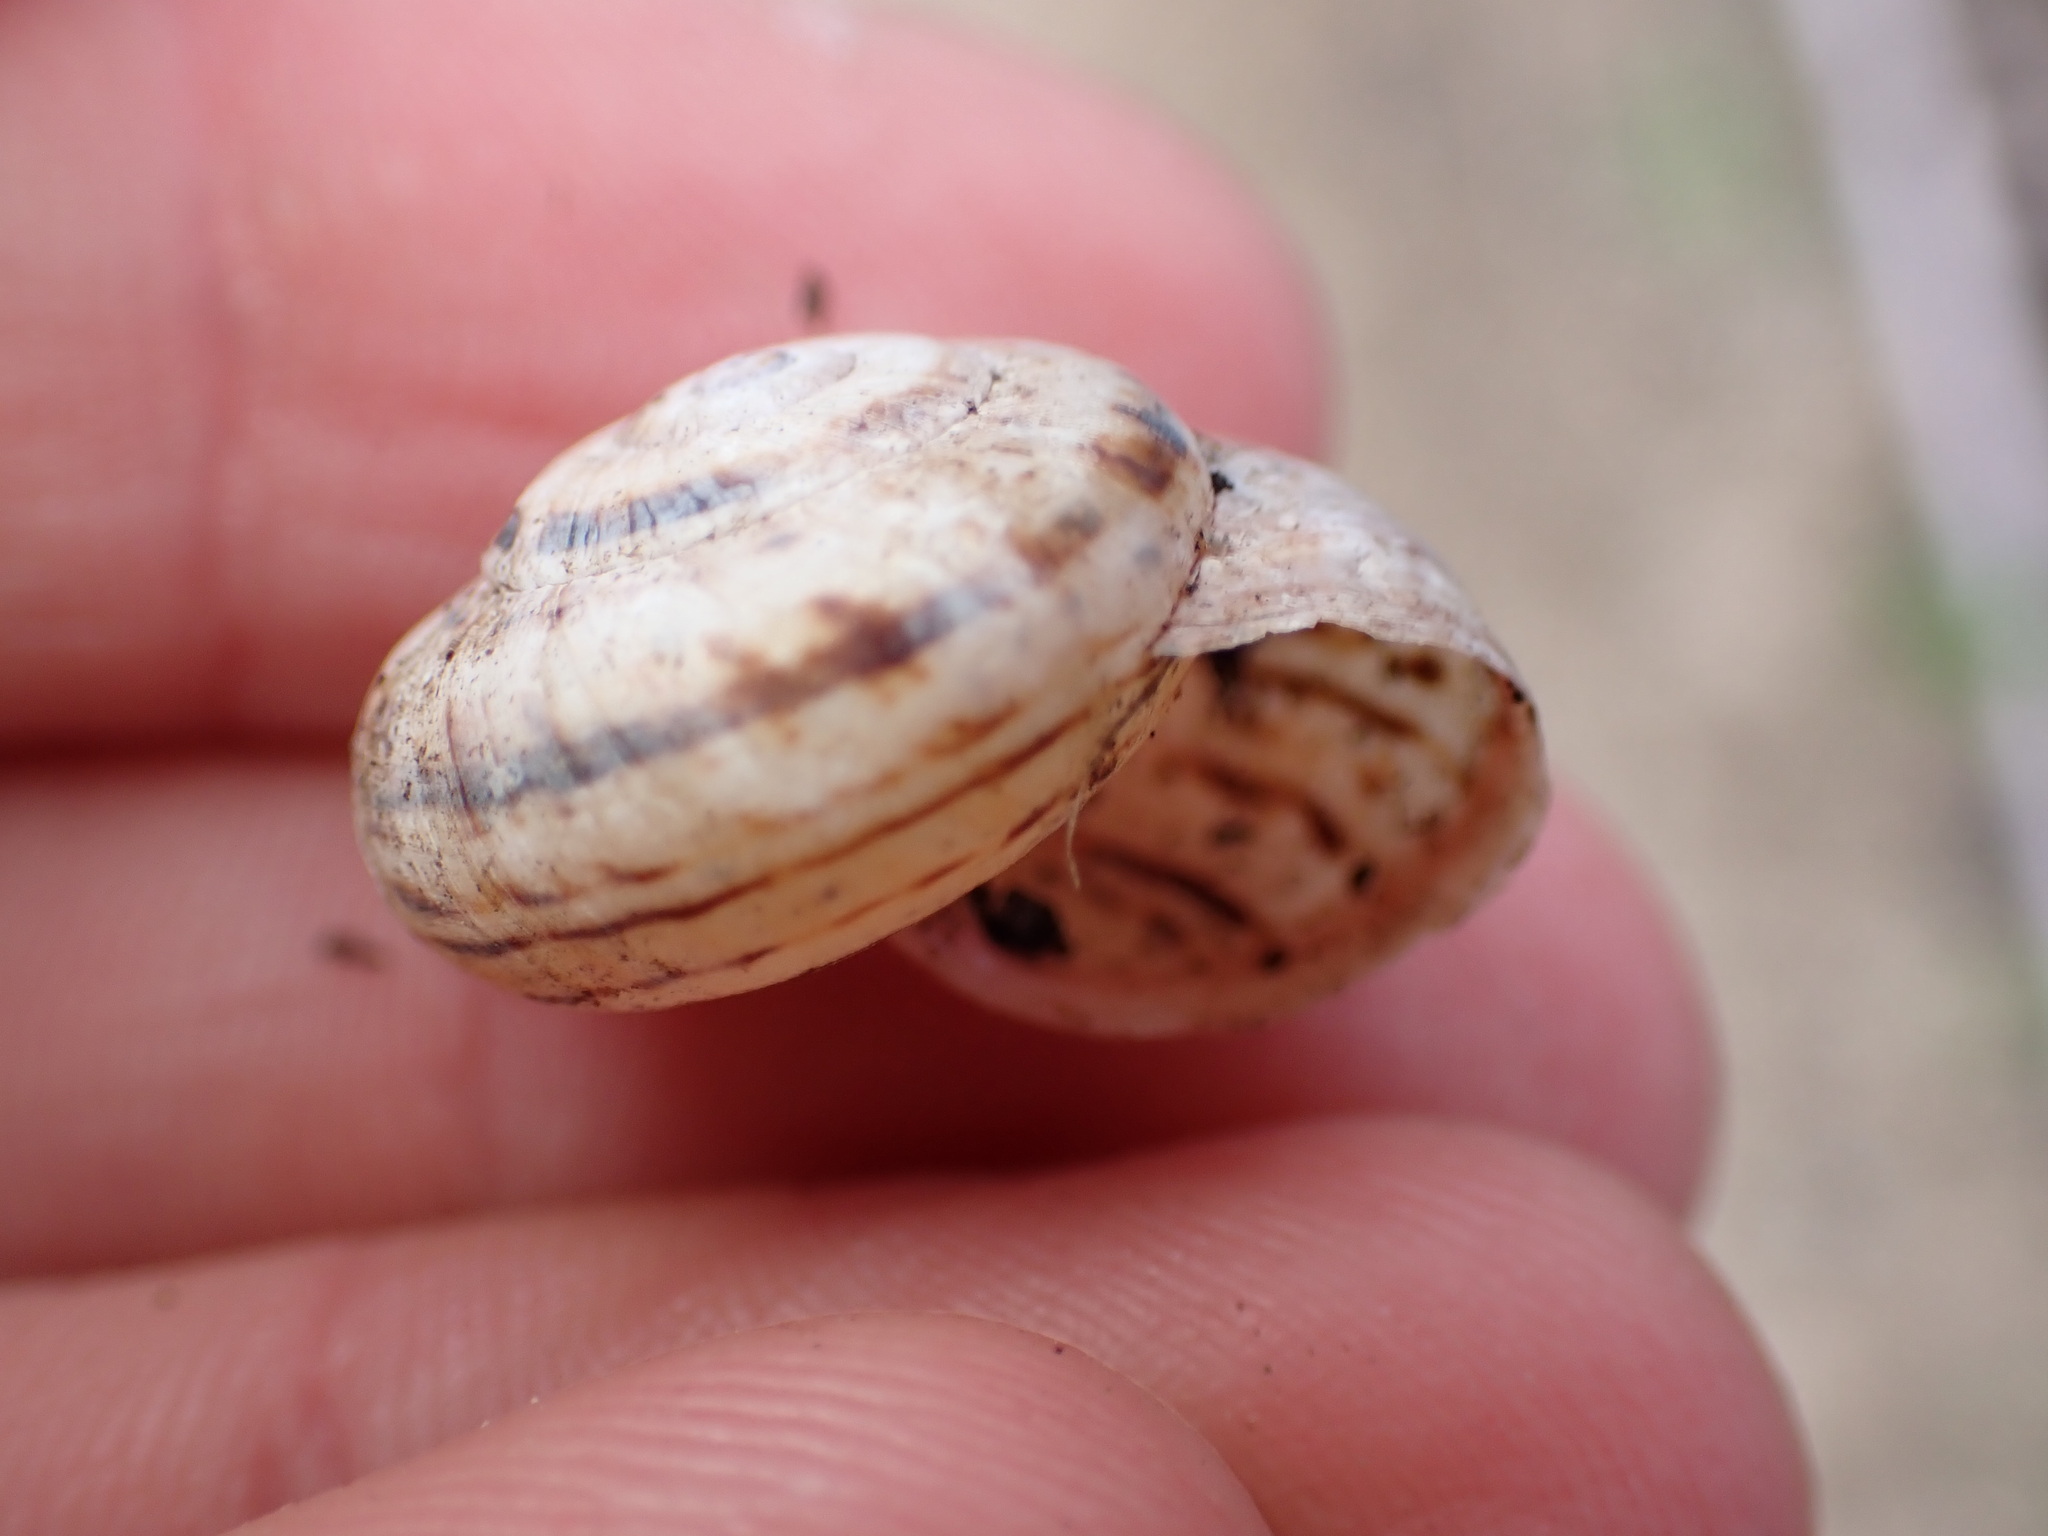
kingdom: Animalia
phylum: Mollusca
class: Gastropoda
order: Stylommatophora
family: Helicidae
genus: Theba
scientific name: Theba pisana
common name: White snail
